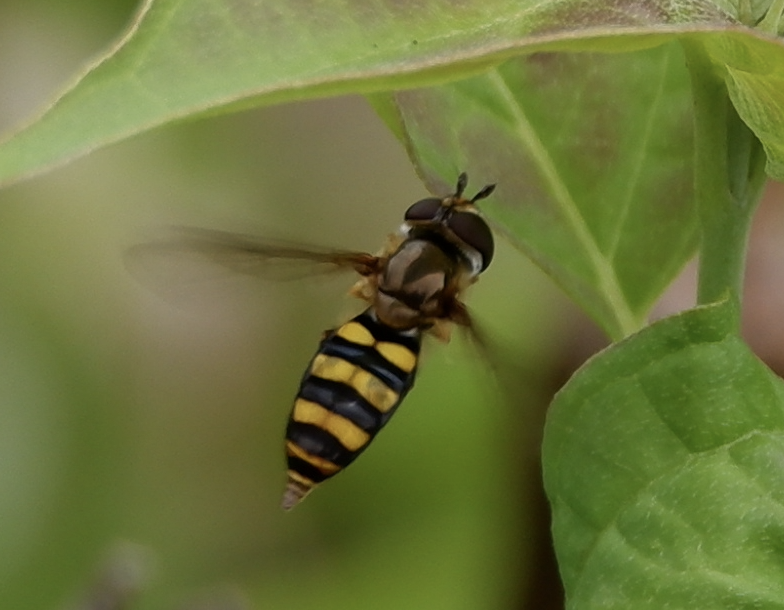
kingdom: Animalia
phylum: Arthropoda
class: Insecta
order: Diptera
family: Syrphidae
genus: Eupeodes
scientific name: Eupeodes
